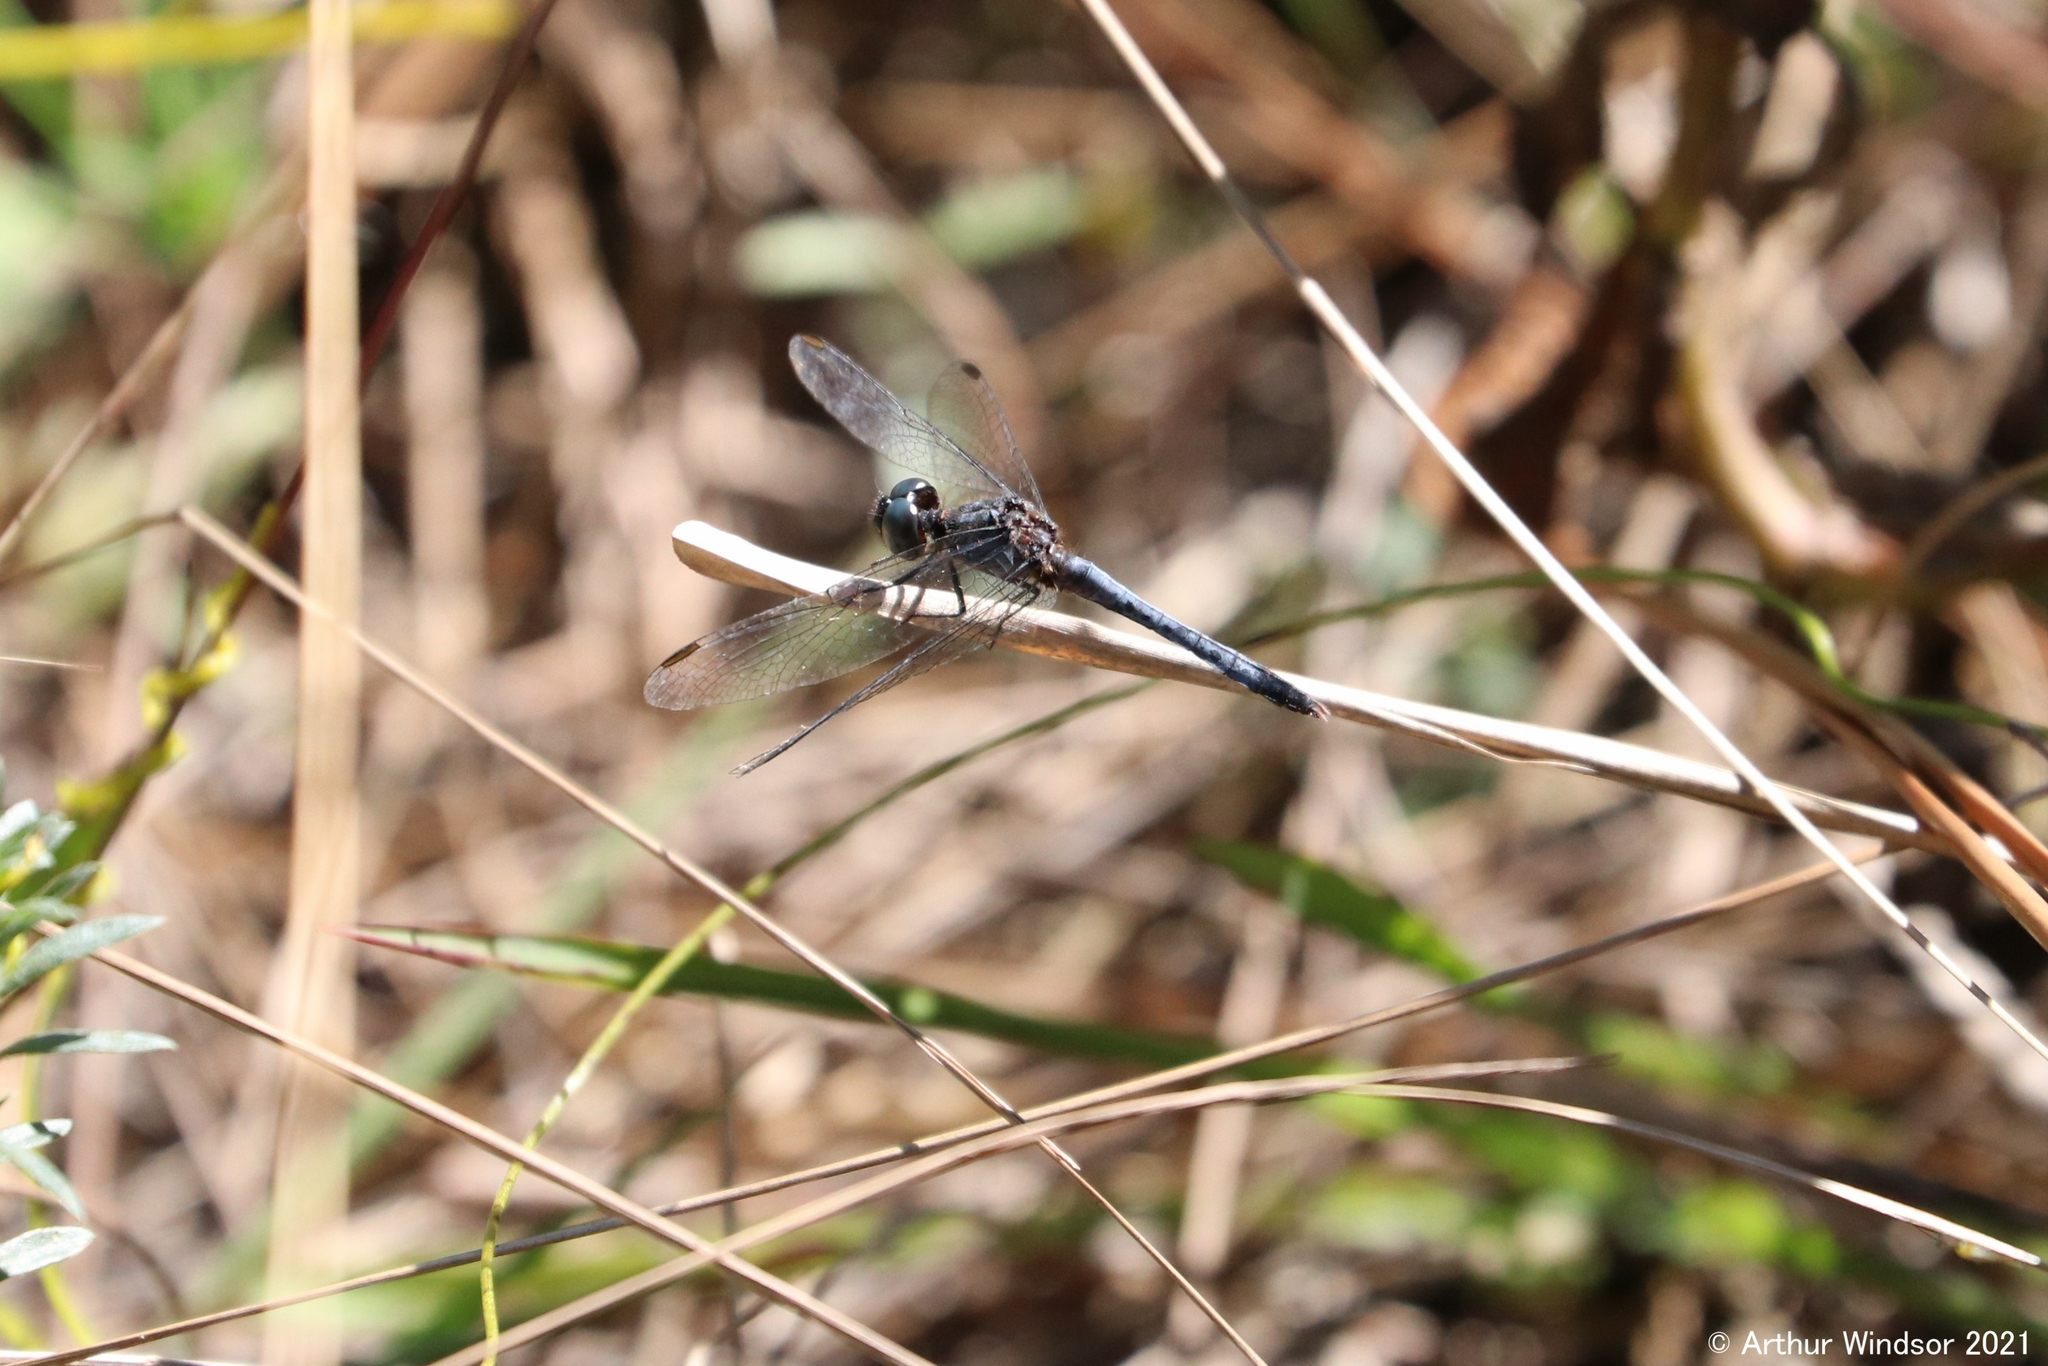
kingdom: Animalia
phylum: Arthropoda
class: Insecta
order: Odonata
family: Libellulidae
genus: Erythrodiplax
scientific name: Erythrodiplax minuscula
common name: Little blue dragonlet
